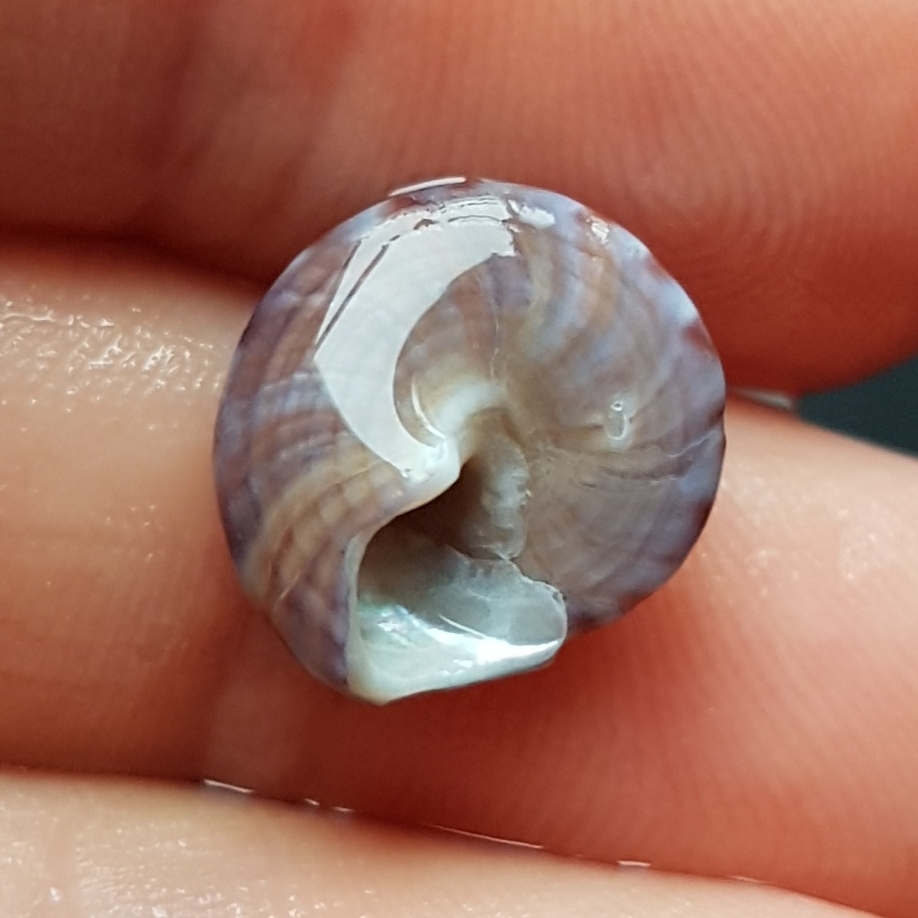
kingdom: Animalia
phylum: Mollusca
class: Gastropoda
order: Trochida
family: Calliostomatidae
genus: Calliostoma
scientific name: Calliostoma zizyphinum
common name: Painted top shell
